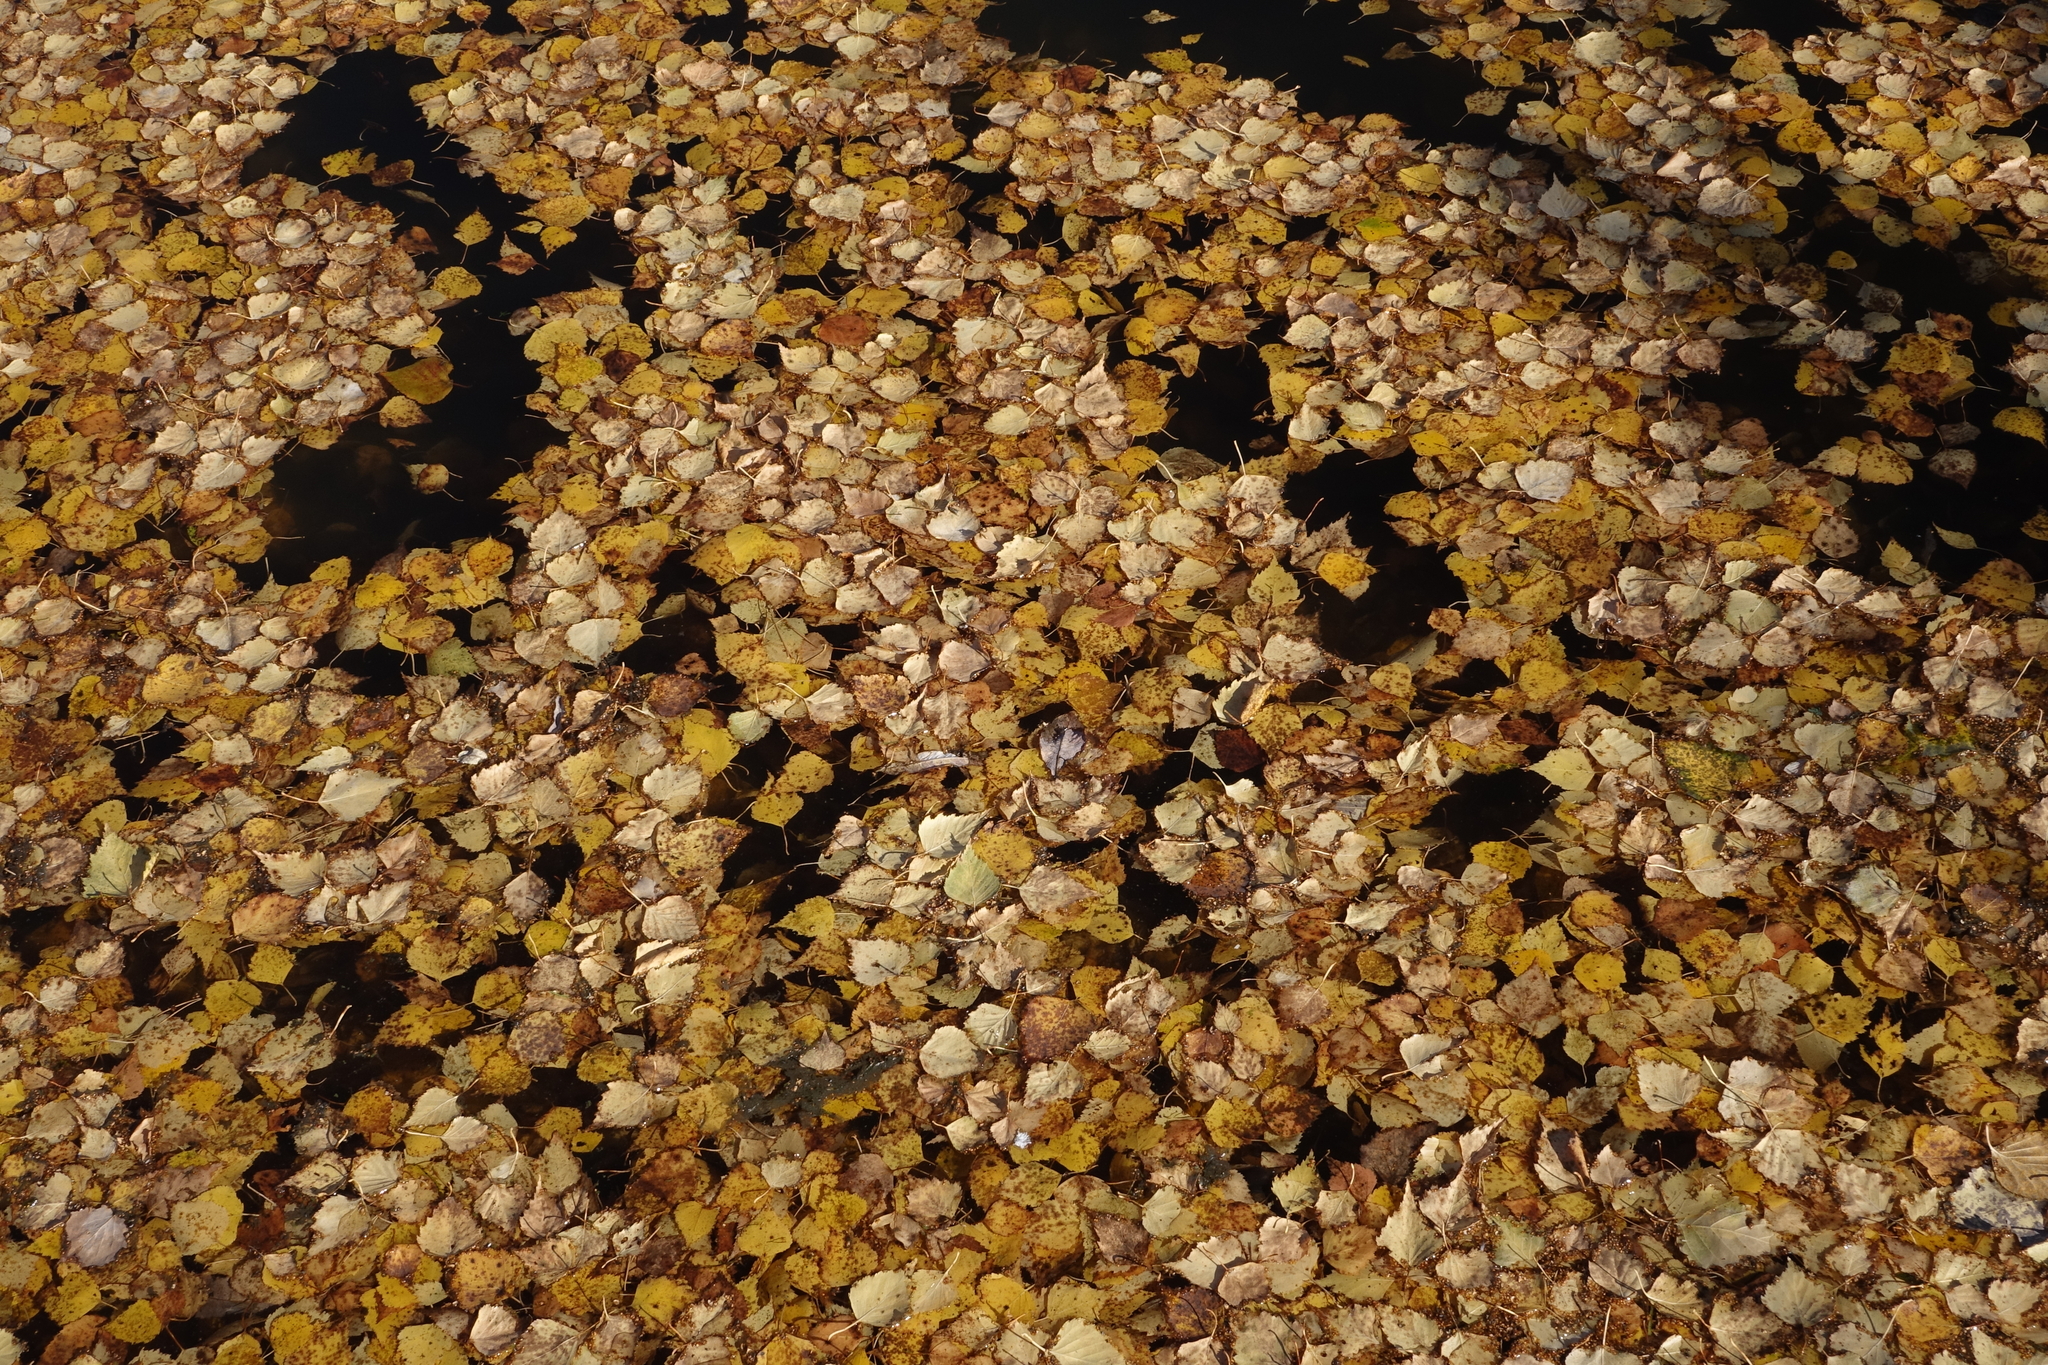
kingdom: Plantae
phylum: Tracheophyta
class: Magnoliopsida
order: Fagales
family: Betulaceae
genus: Betula
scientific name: Betula pendula
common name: Silver birch
